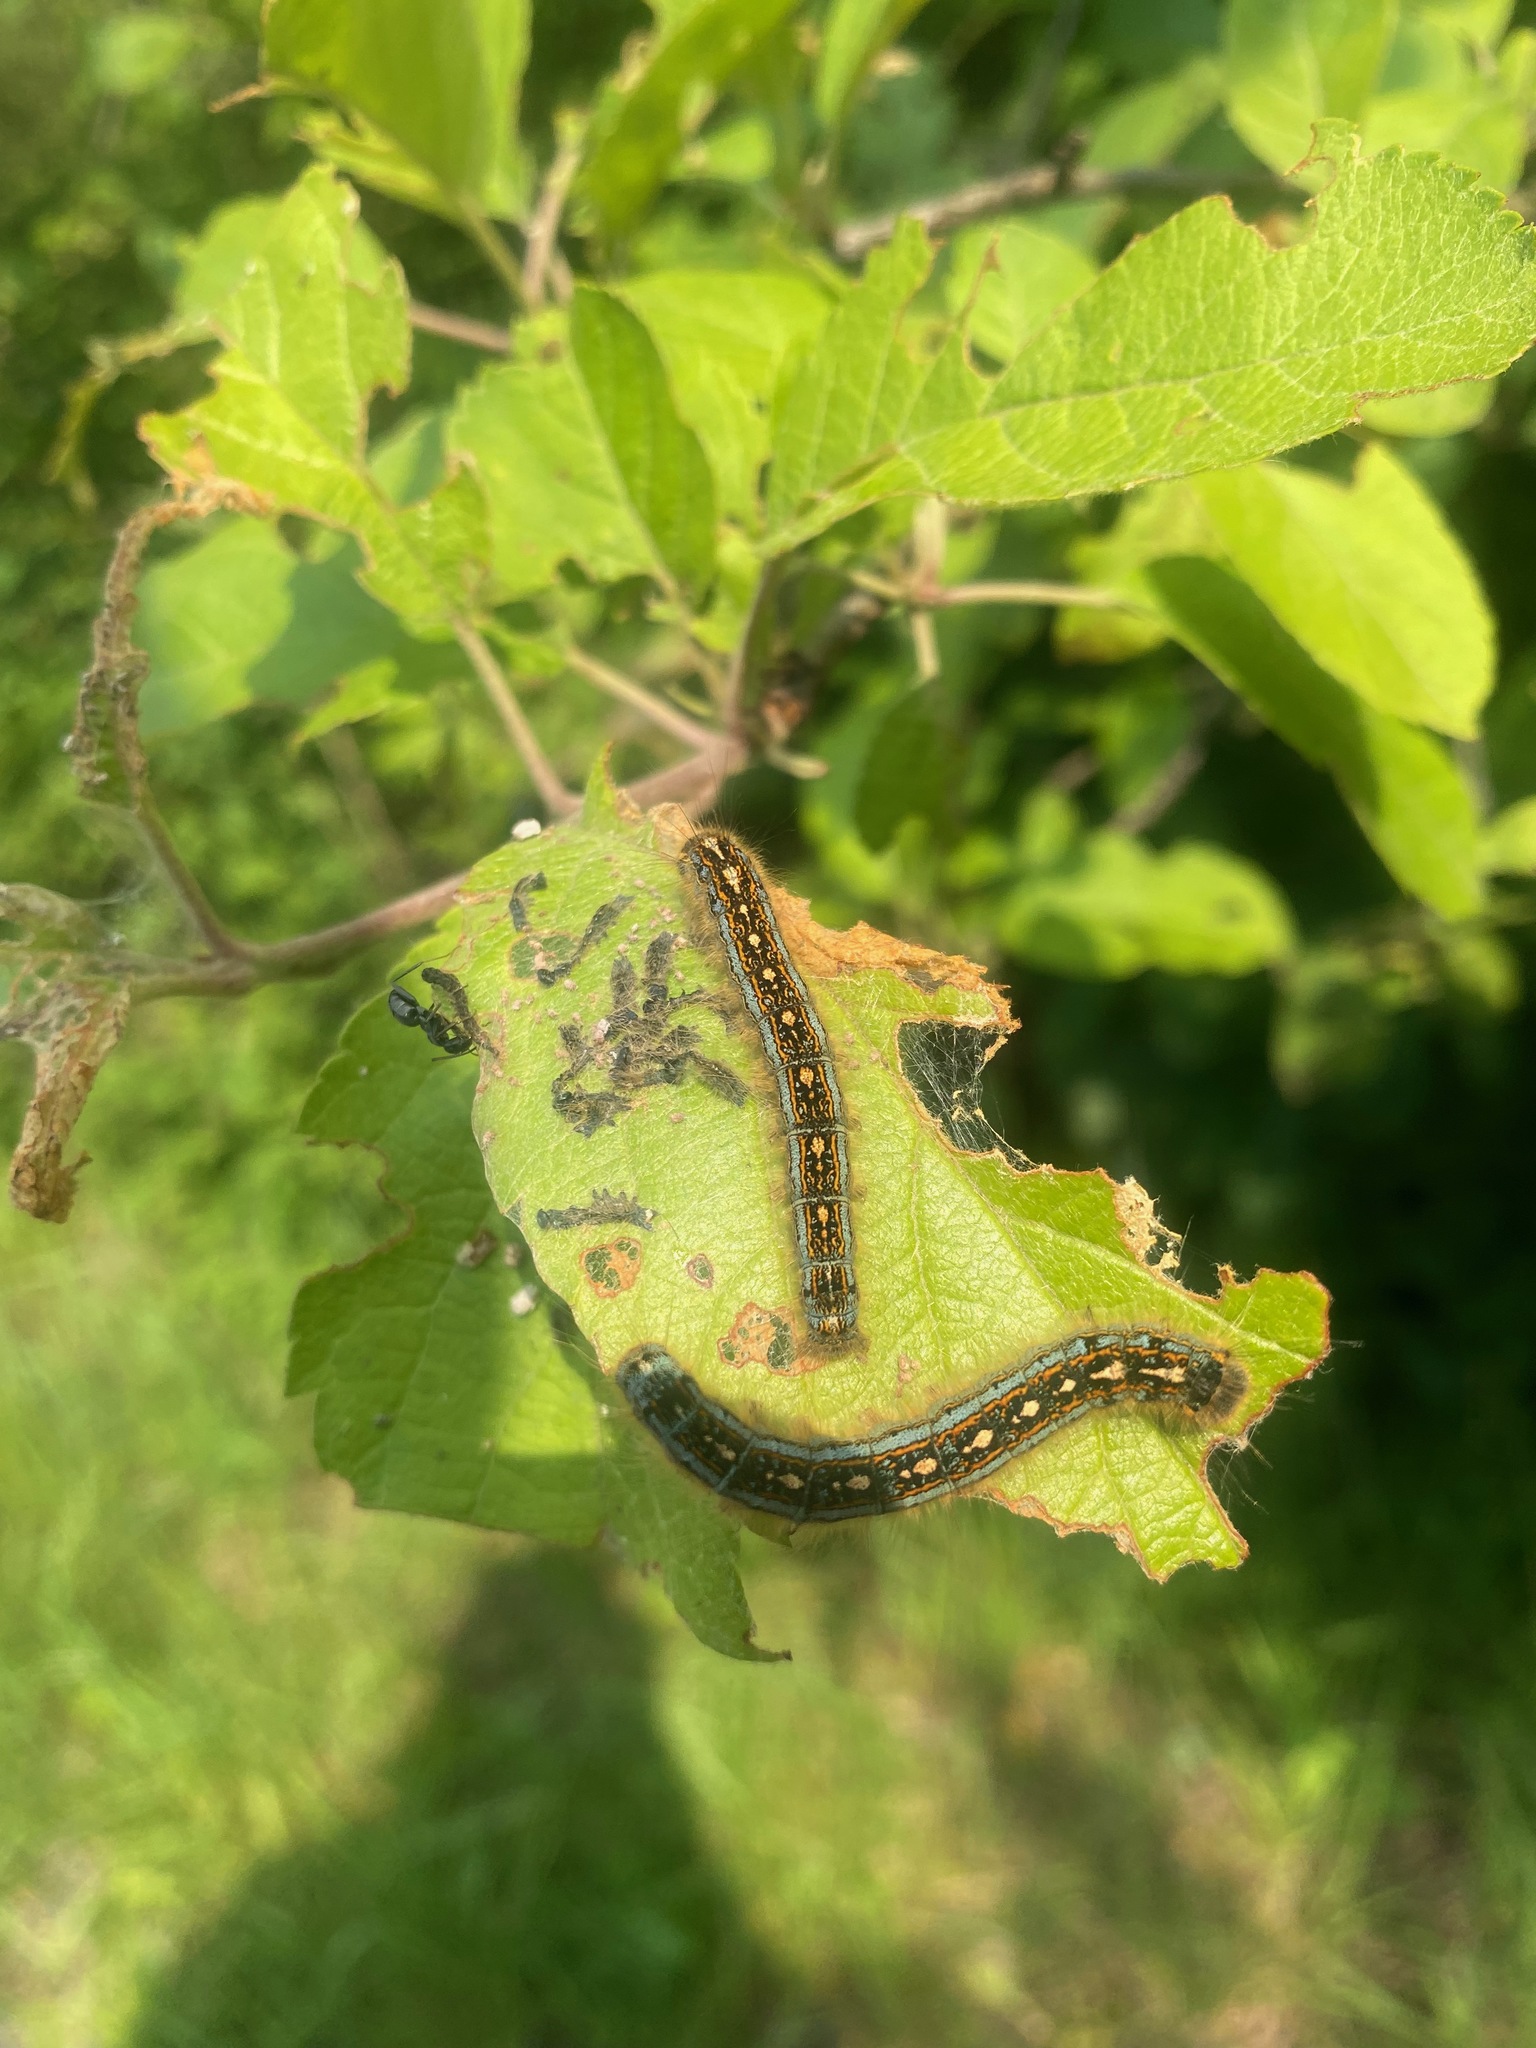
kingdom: Animalia
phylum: Arthropoda
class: Insecta
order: Lepidoptera
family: Lasiocampidae
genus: Malacosoma
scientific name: Malacosoma disstria
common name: Forest tent caterpillar
